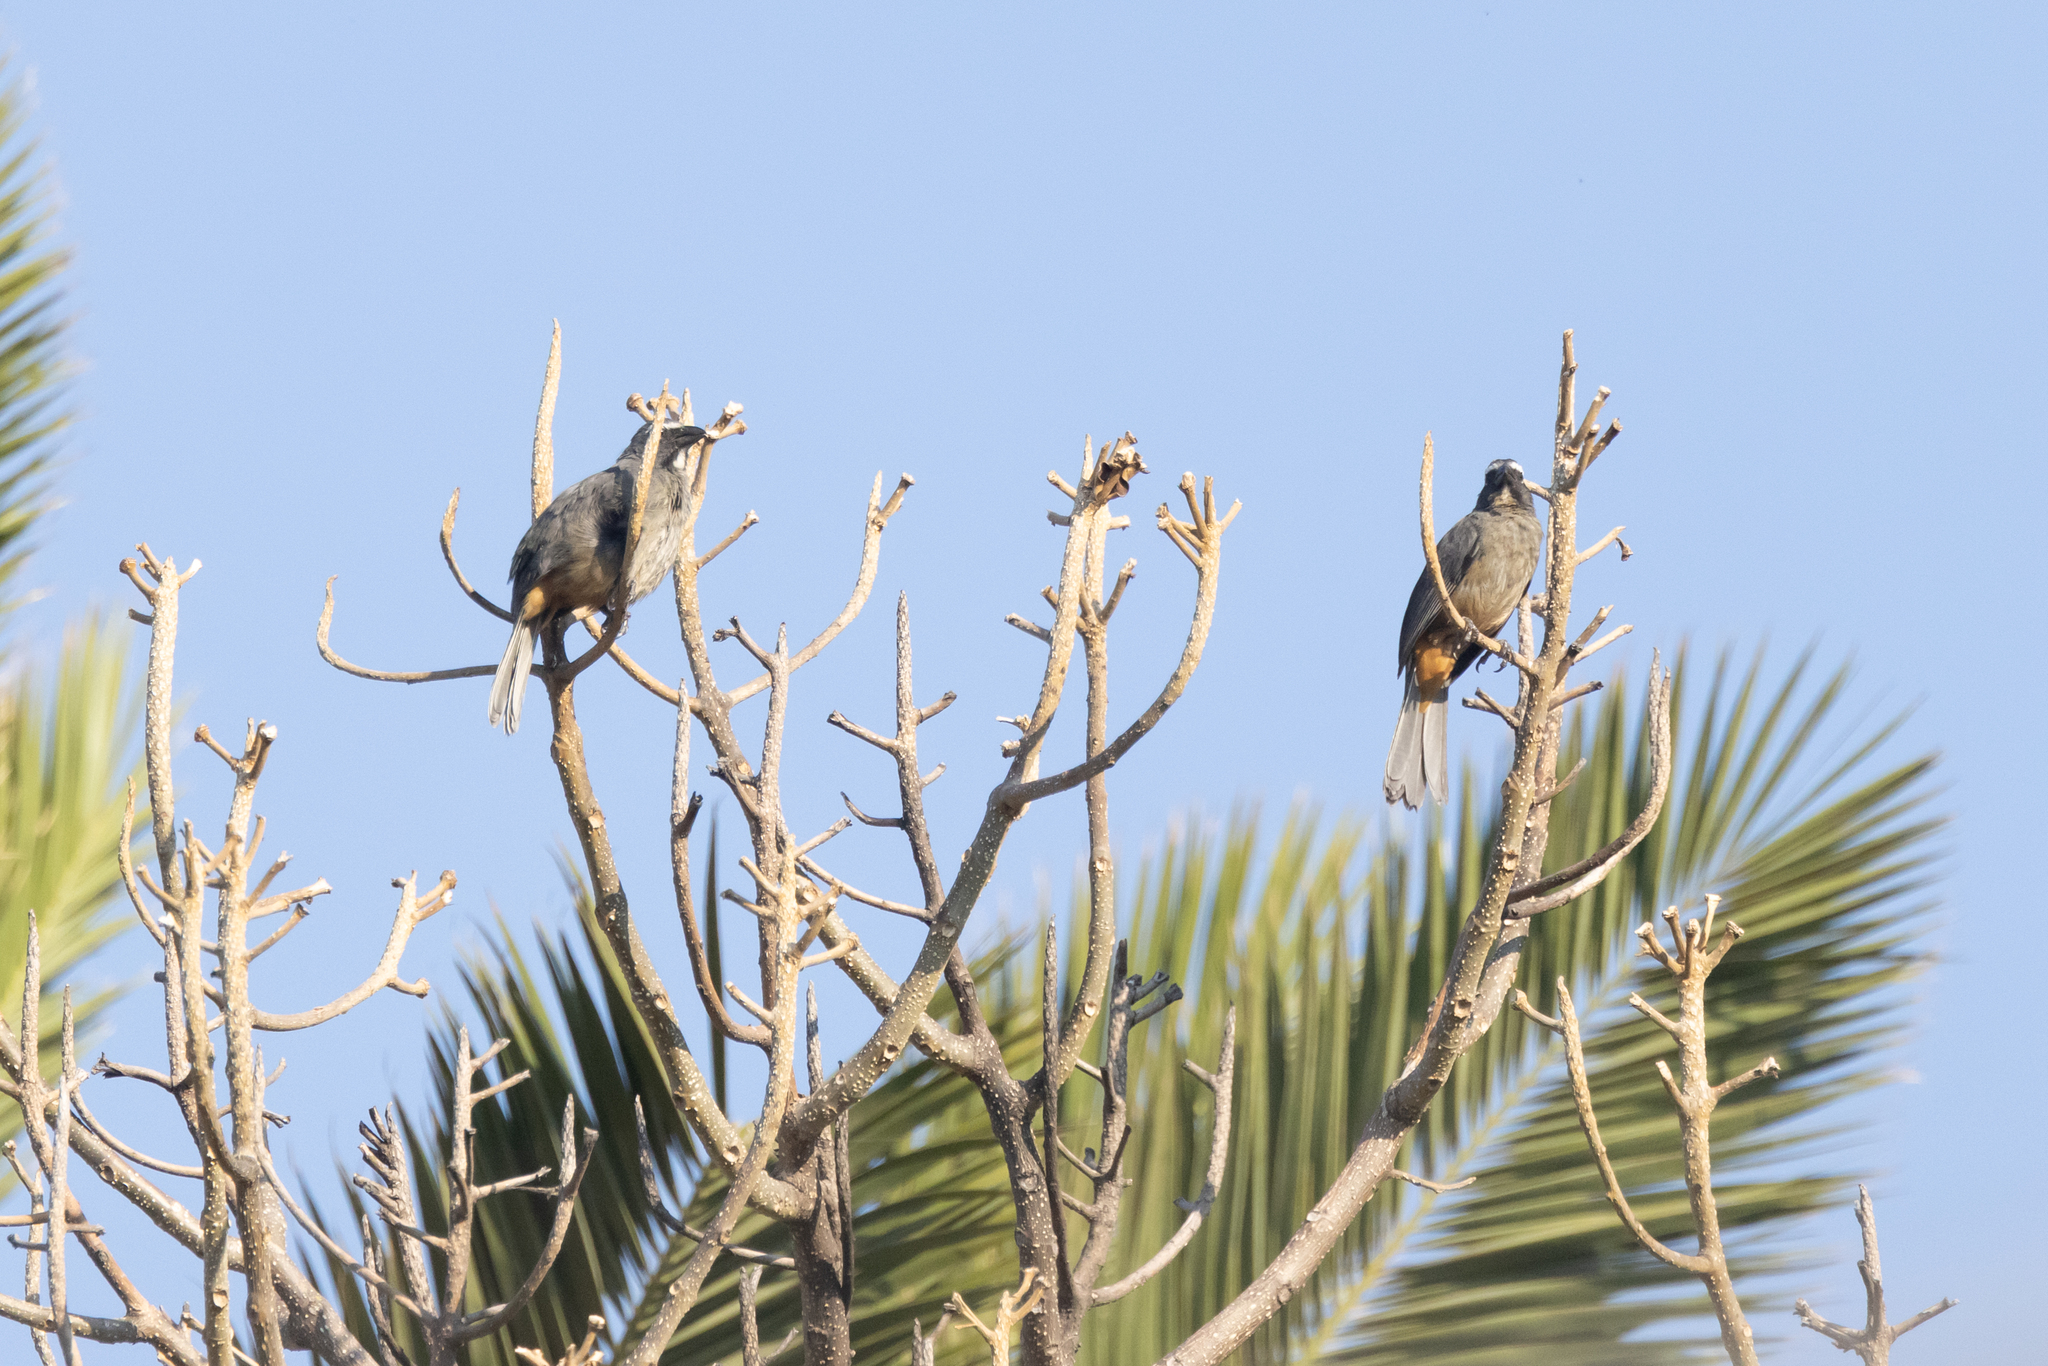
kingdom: Animalia
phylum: Chordata
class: Aves
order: Passeriformes
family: Thraupidae
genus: Saltator
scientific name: Saltator grandis
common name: Cinnamon-bellied saltator
